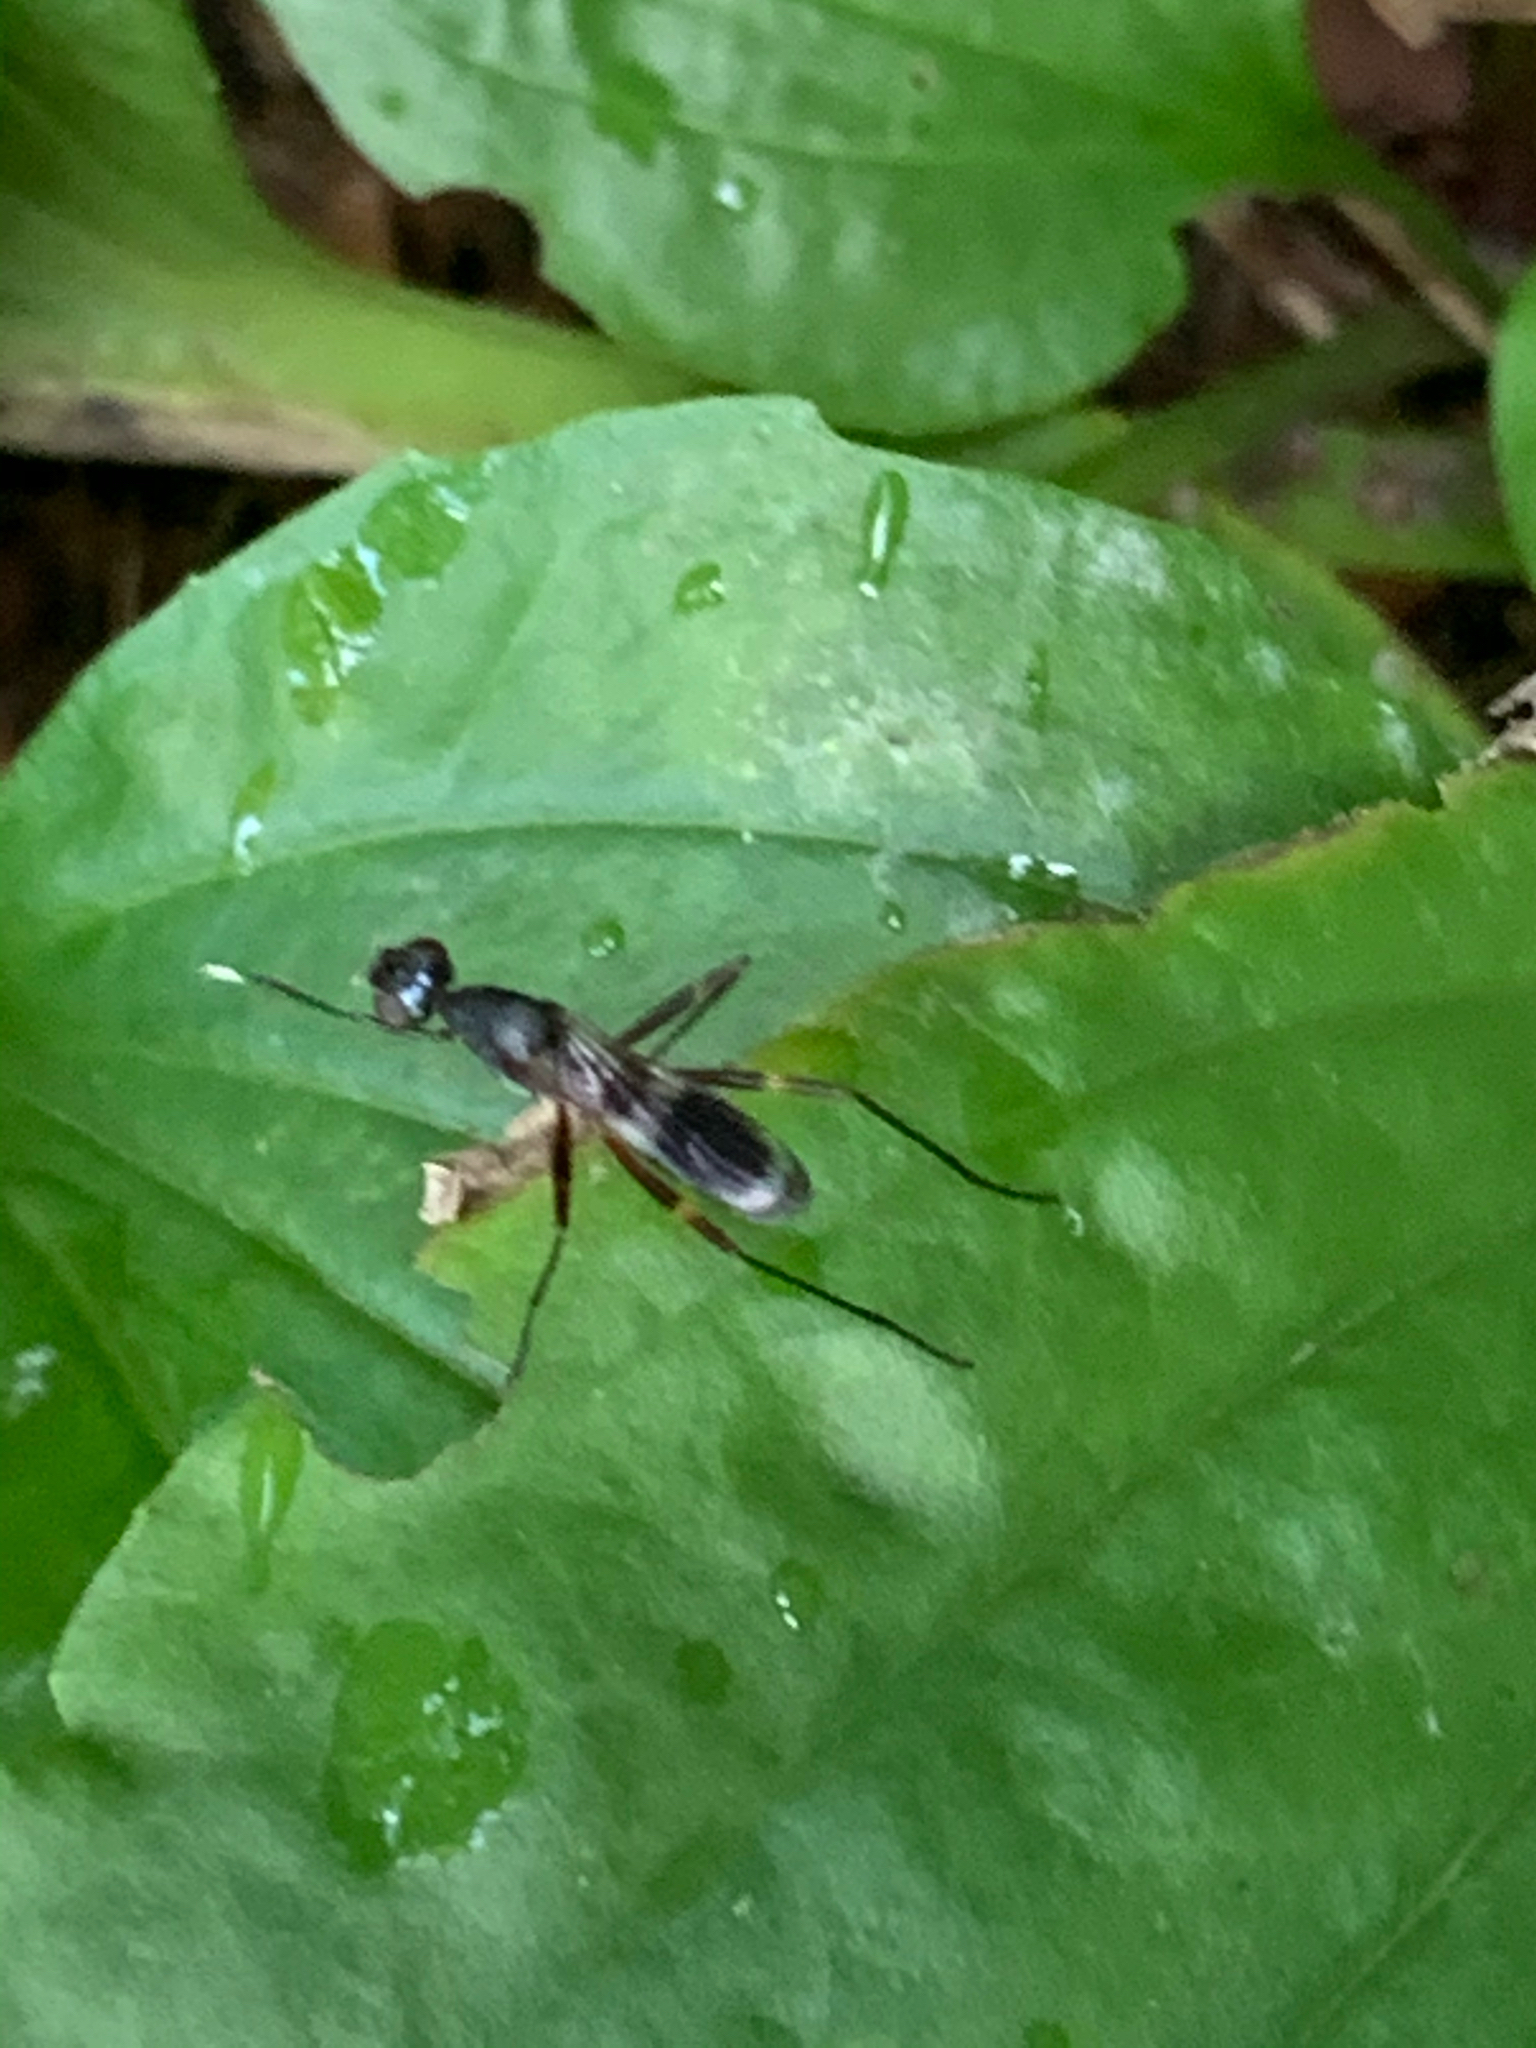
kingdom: Animalia
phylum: Arthropoda
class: Insecta
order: Diptera
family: Micropezidae
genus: Taeniaptera
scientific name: Taeniaptera trivittata
